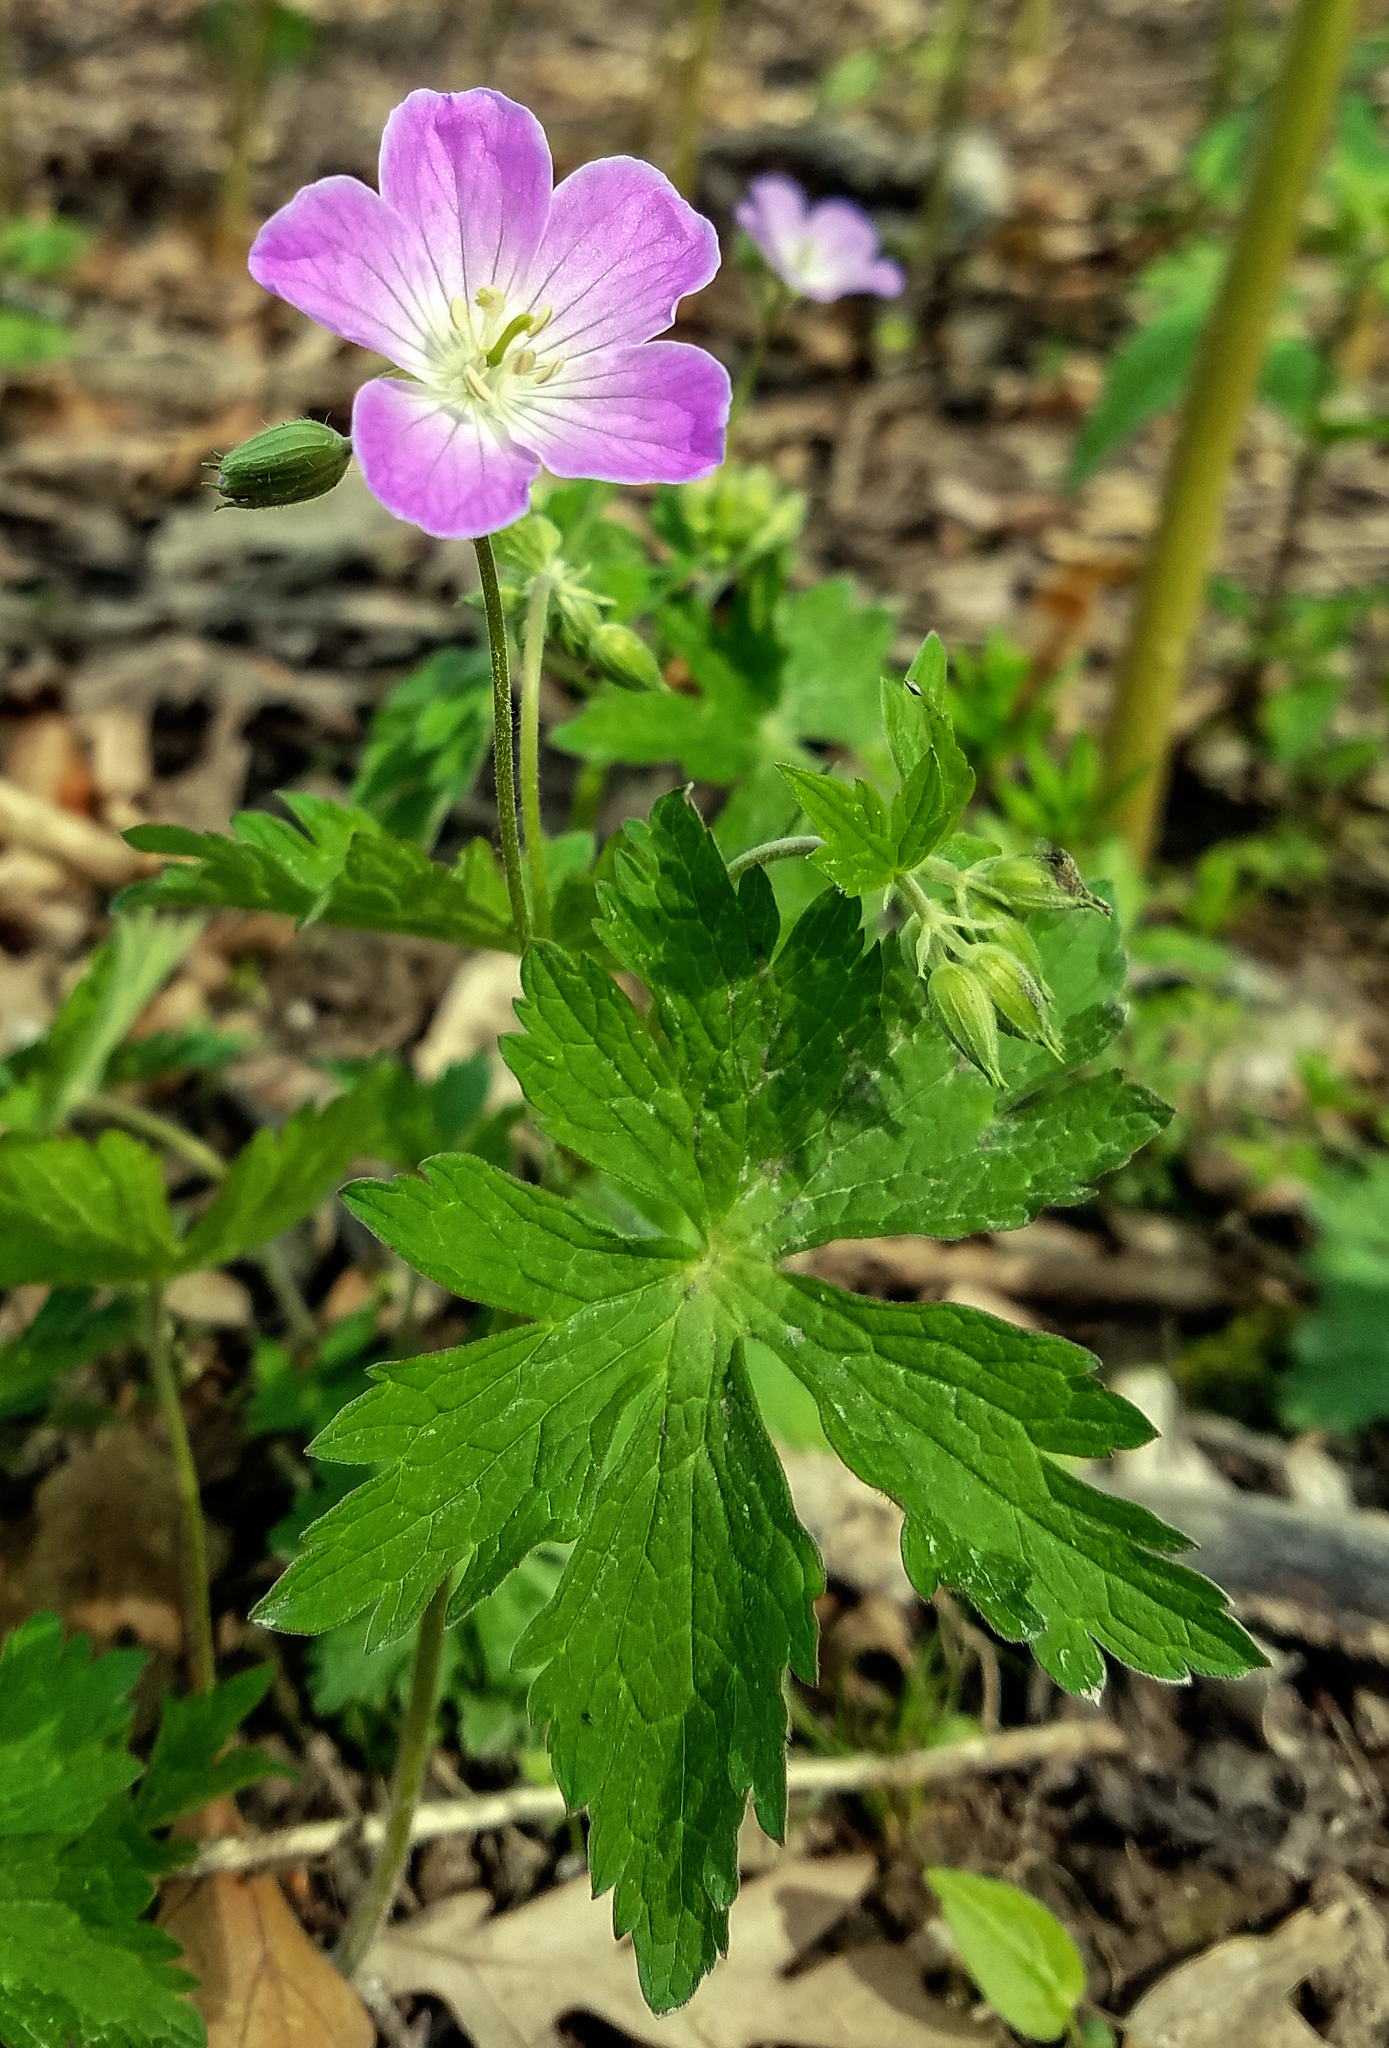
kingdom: Plantae
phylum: Tracheophyta
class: Magnoliopsida
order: Geraniales
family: Geraniaceae
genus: Geranium
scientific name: Geranium maculatum
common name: Spotted geranium
